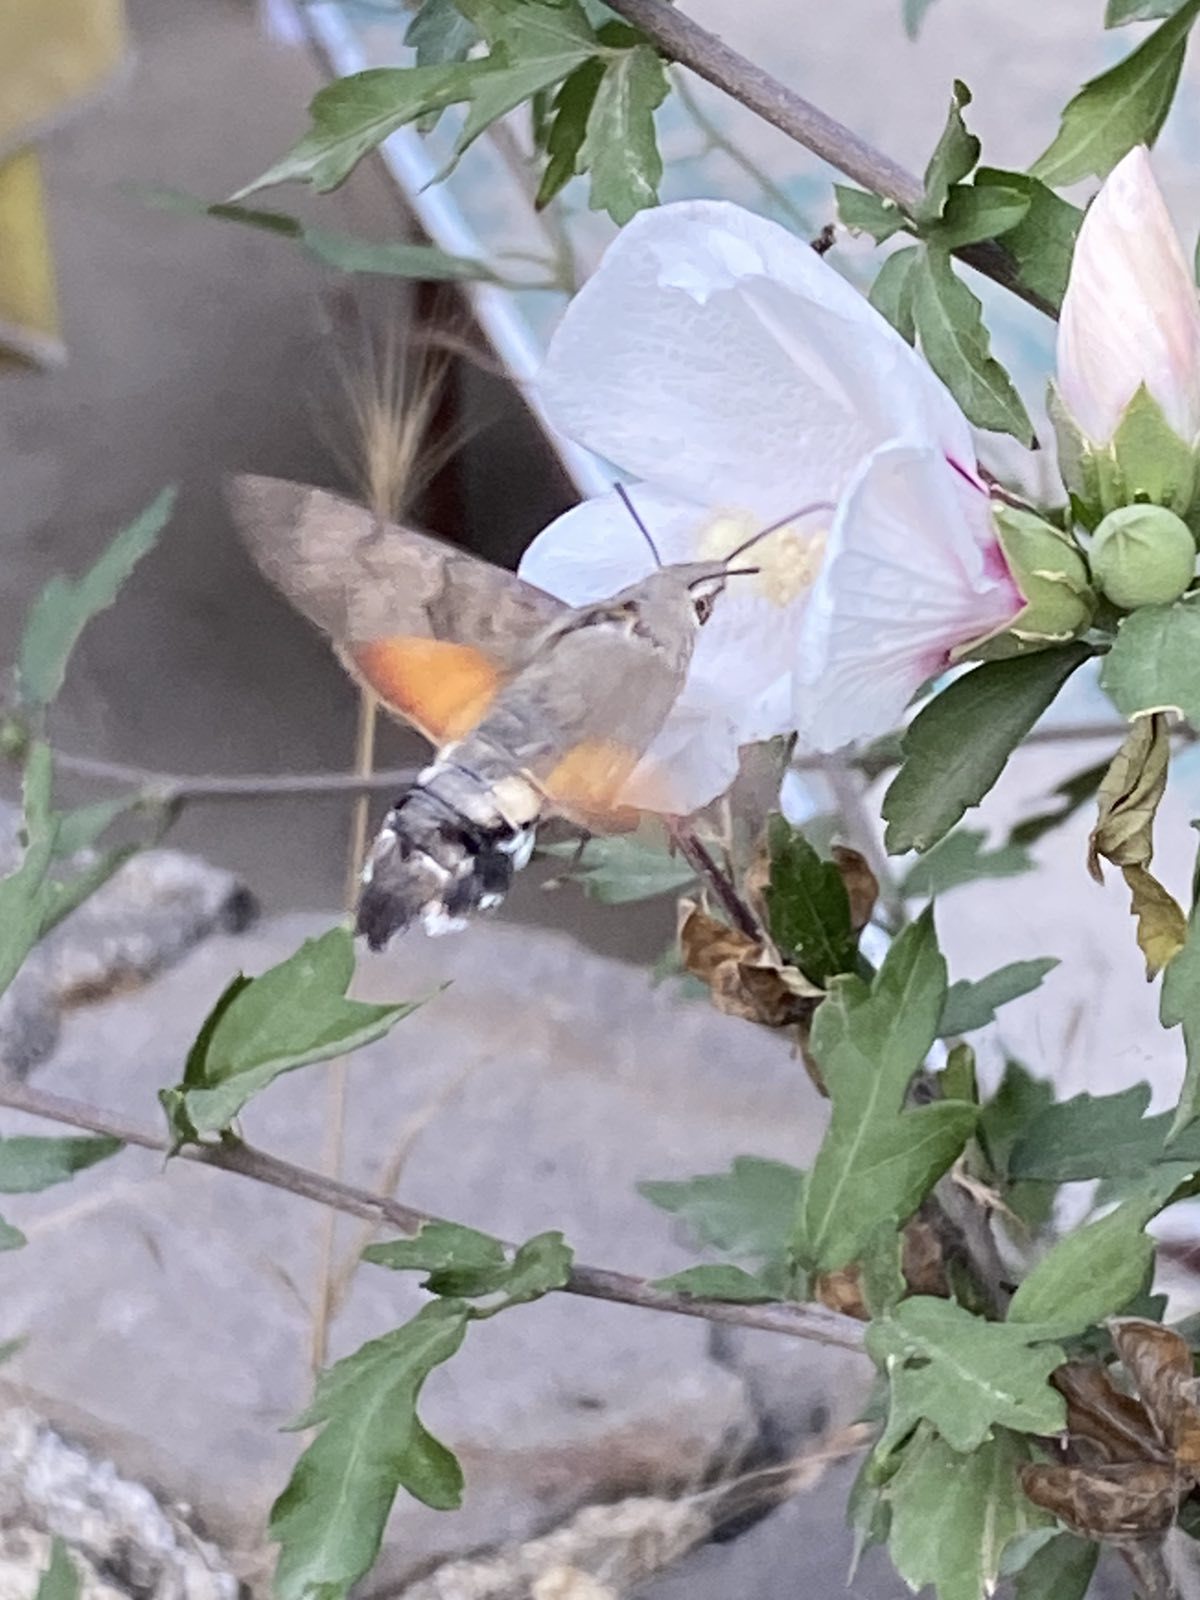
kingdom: Animalia
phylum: Arthropoda
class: Insecta
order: Lepidoptera
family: Sphingidae
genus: Macroglossum
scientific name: Macroglossum stellatarum
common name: Humming-bird hawk-moth
